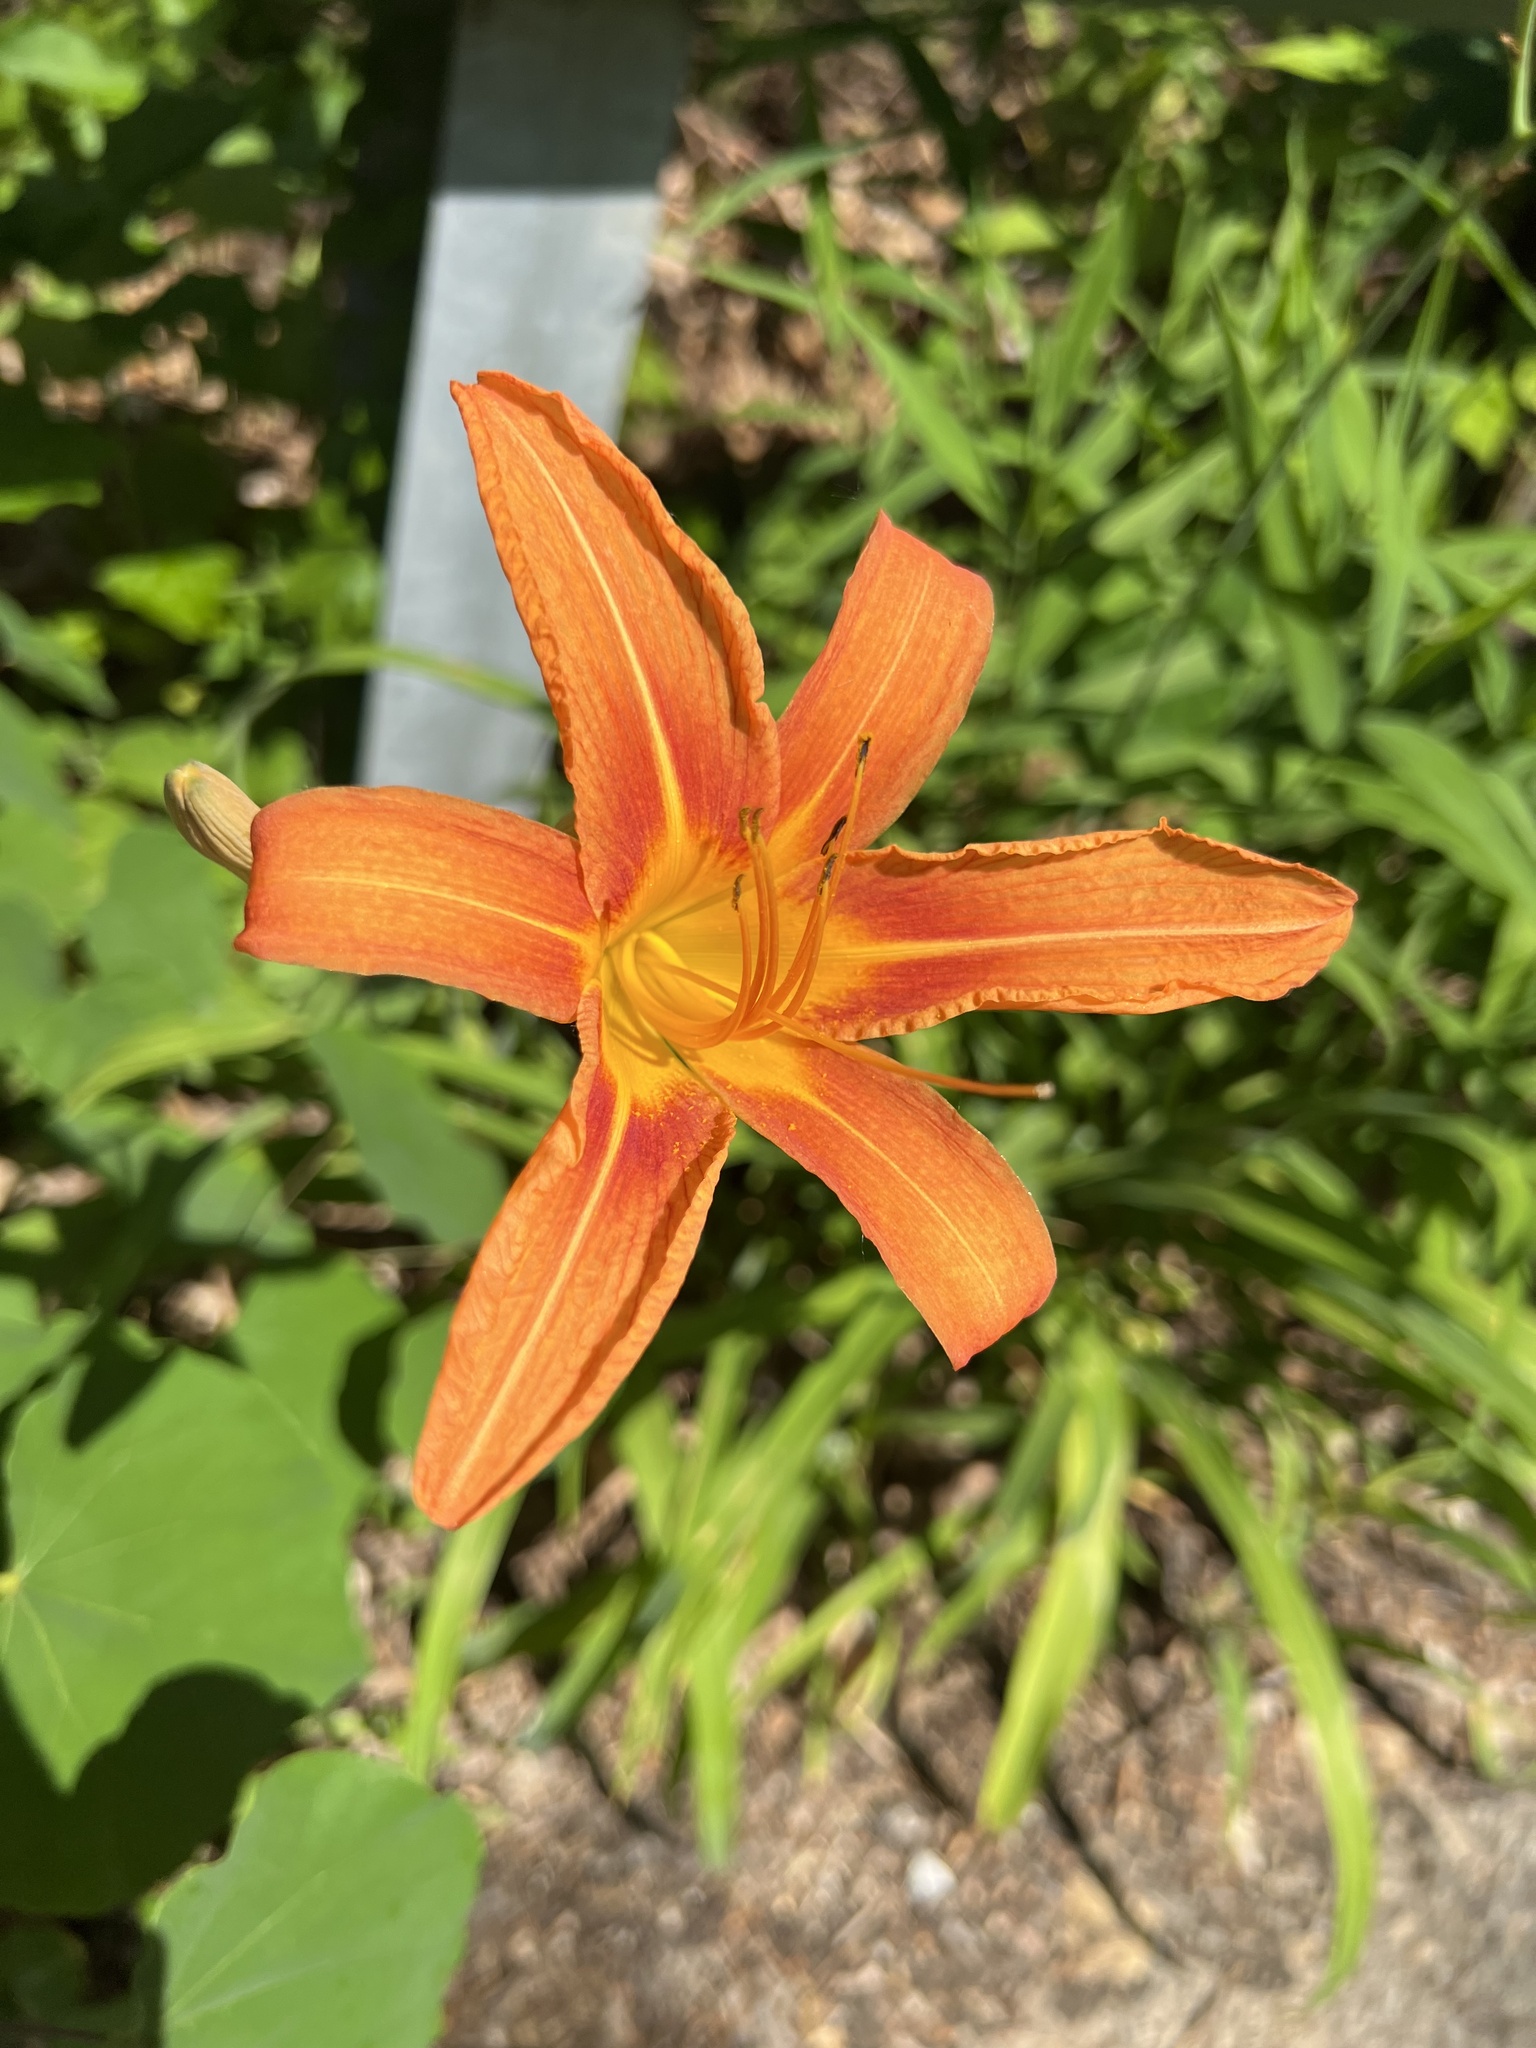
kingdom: Plantae
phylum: Tracheophyta
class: Liliopsida
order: Asparagales
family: Asphodelaceae
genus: Hemerocallis
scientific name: Hemerocallis fulva
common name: Orange day-lily
